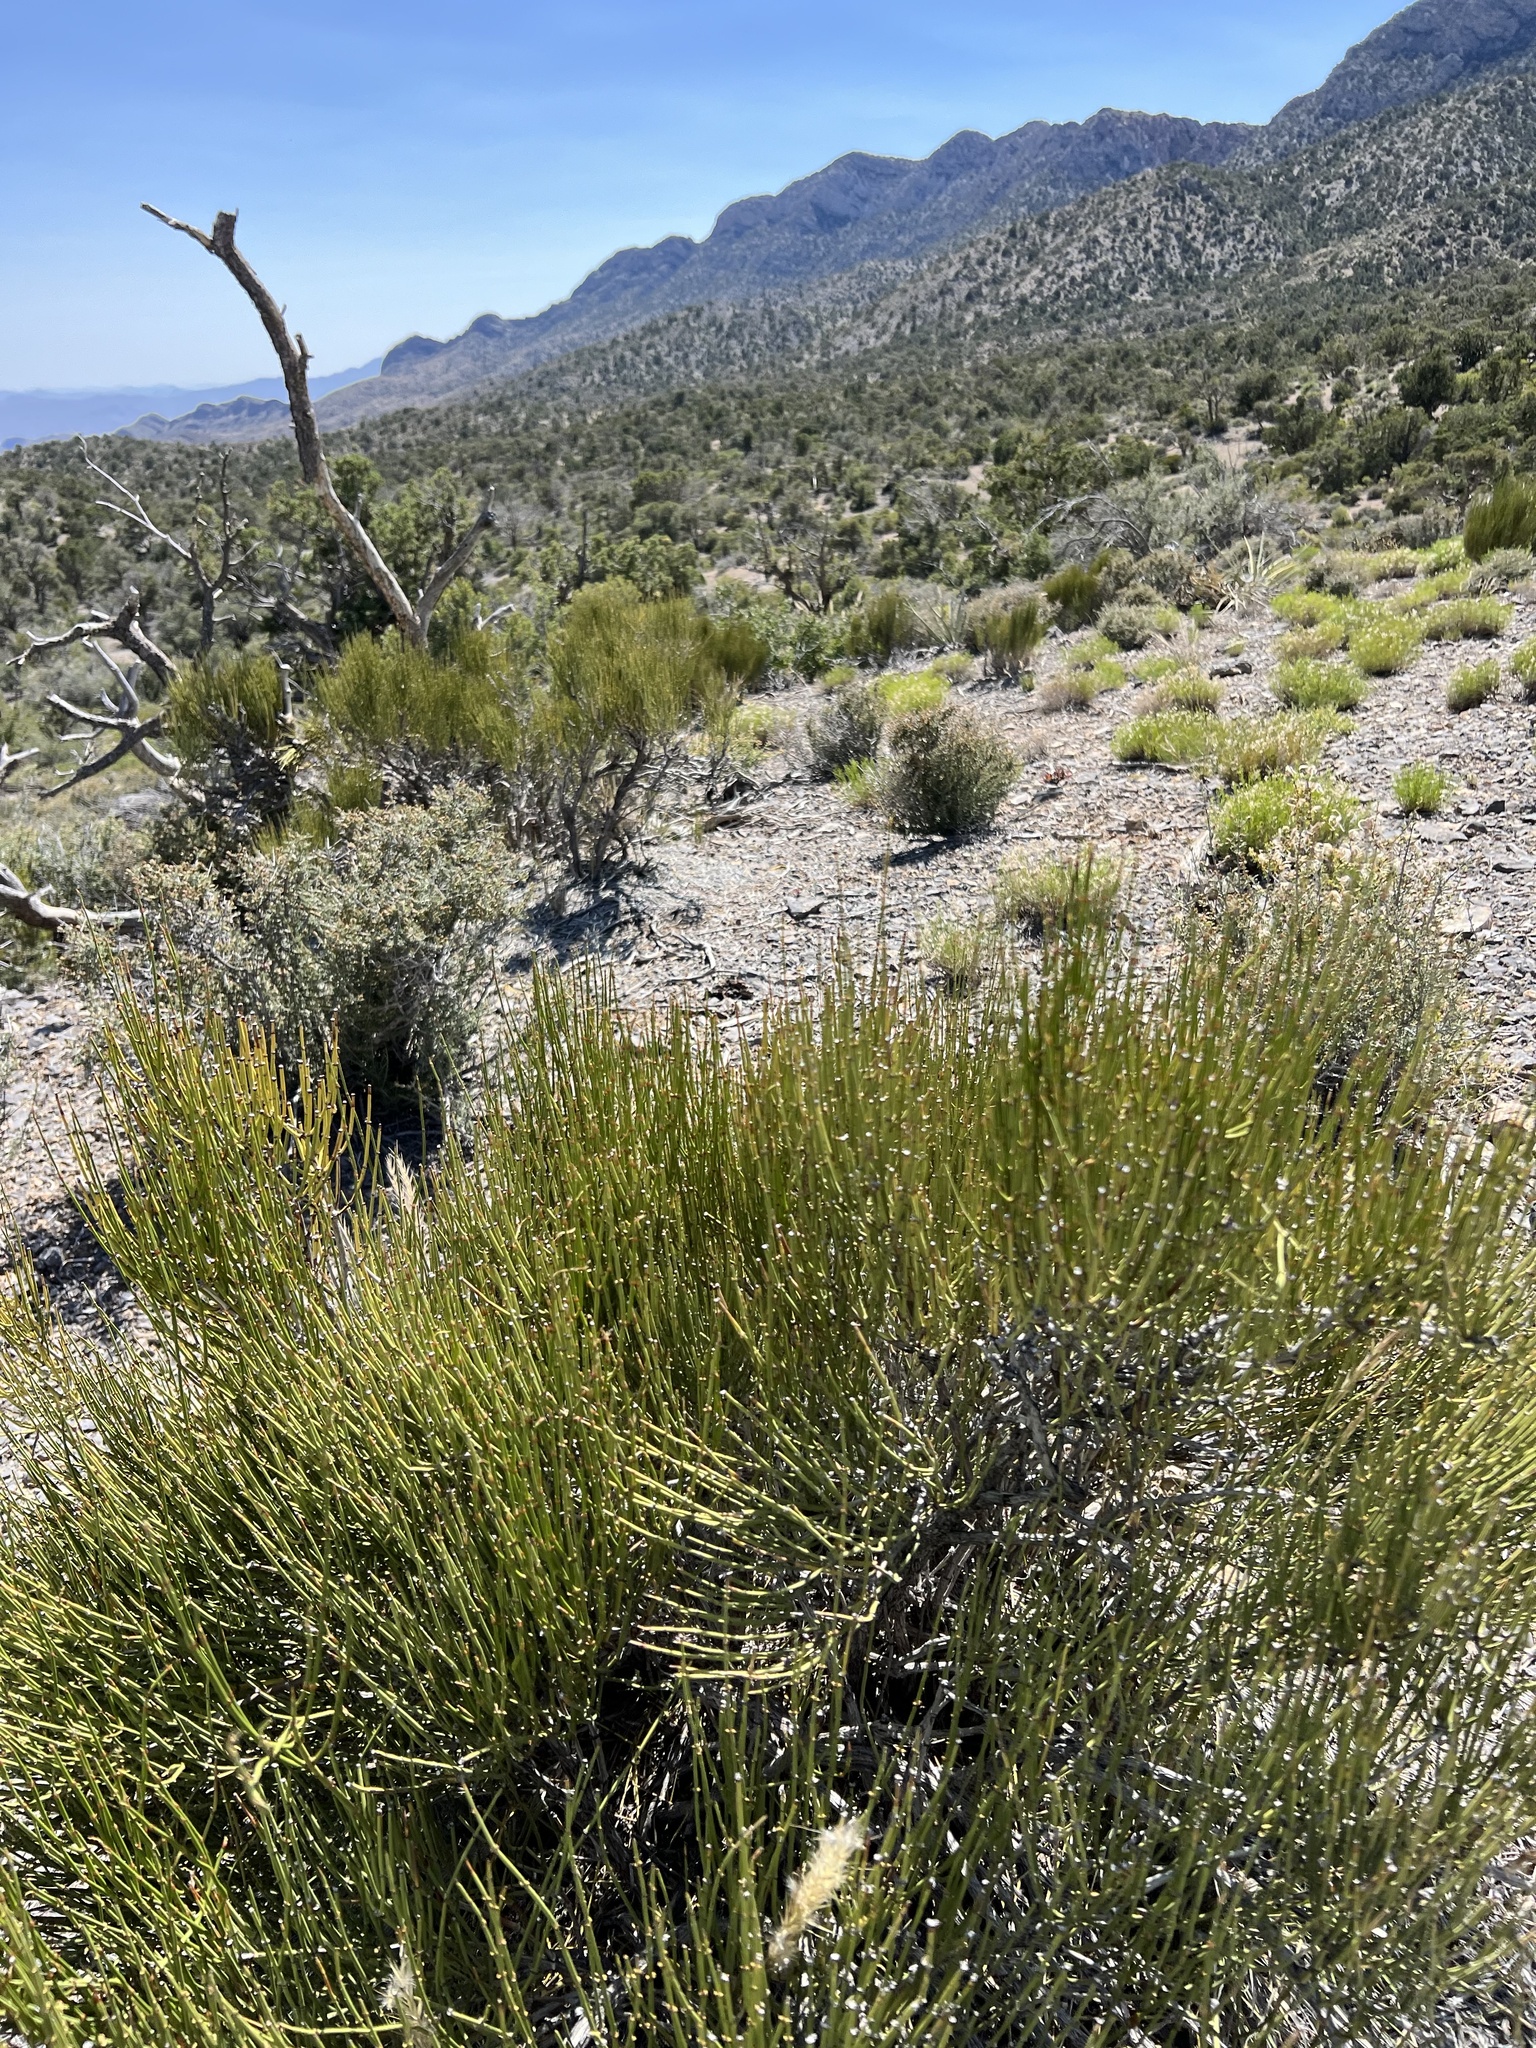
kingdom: Plantae
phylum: Tracheophyta
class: Gnetopsida
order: Ephedrales
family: Ephedraceae
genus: Ephedra
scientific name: Ephedra viridis
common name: Green ephedra
